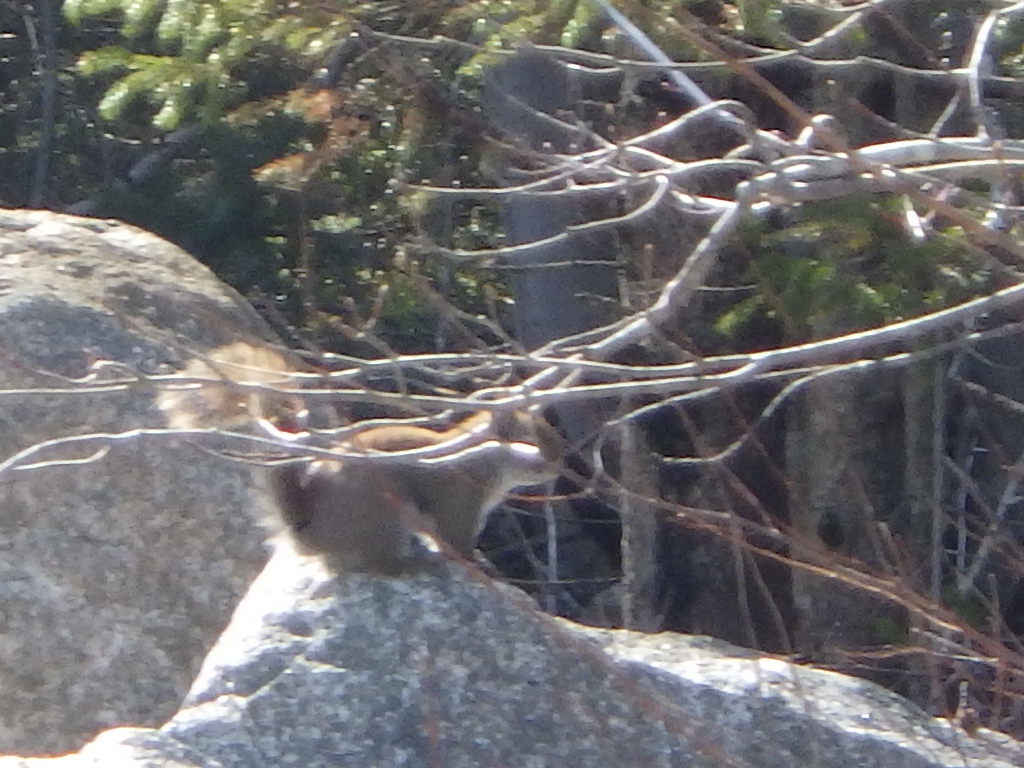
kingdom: Animalia
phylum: Chordata
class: Mammalia
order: Rodentia
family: Sciuridae
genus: Tamiasciurus
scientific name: Tamiasciurus hudsonicus
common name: Red squirrel
